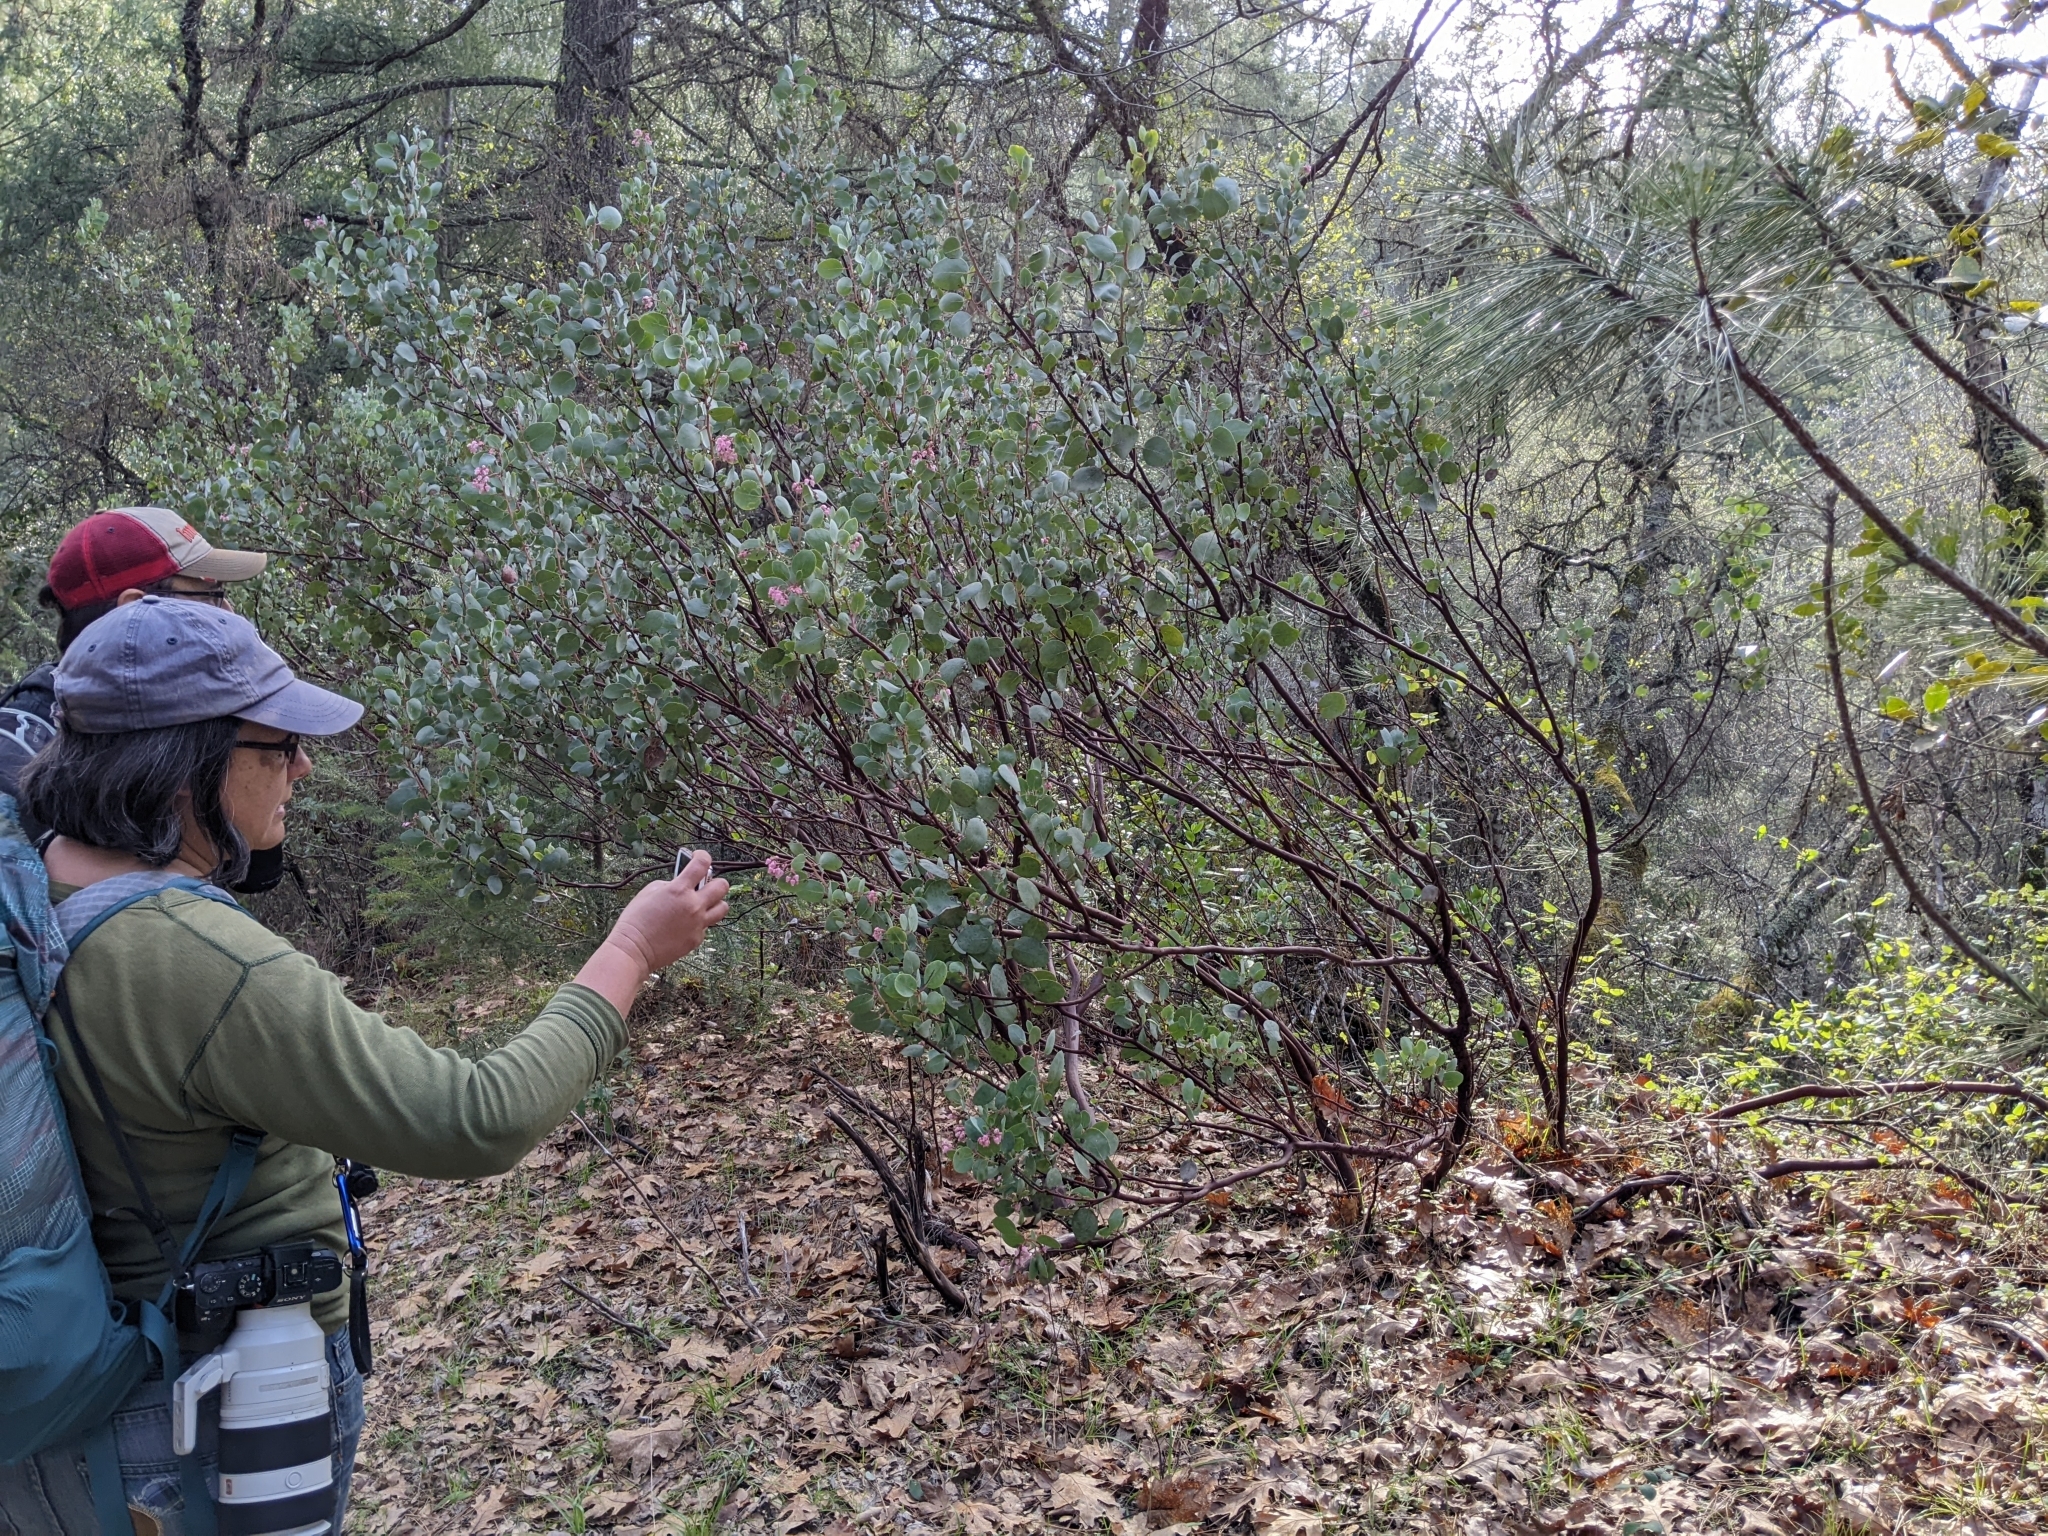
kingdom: Plantae
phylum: Tracheophyta
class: Magnoliopsida
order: Ericales
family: Ericaceae
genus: Arctostaphylos
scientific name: Arctostaphylos viscida
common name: White-leaf manzanita
